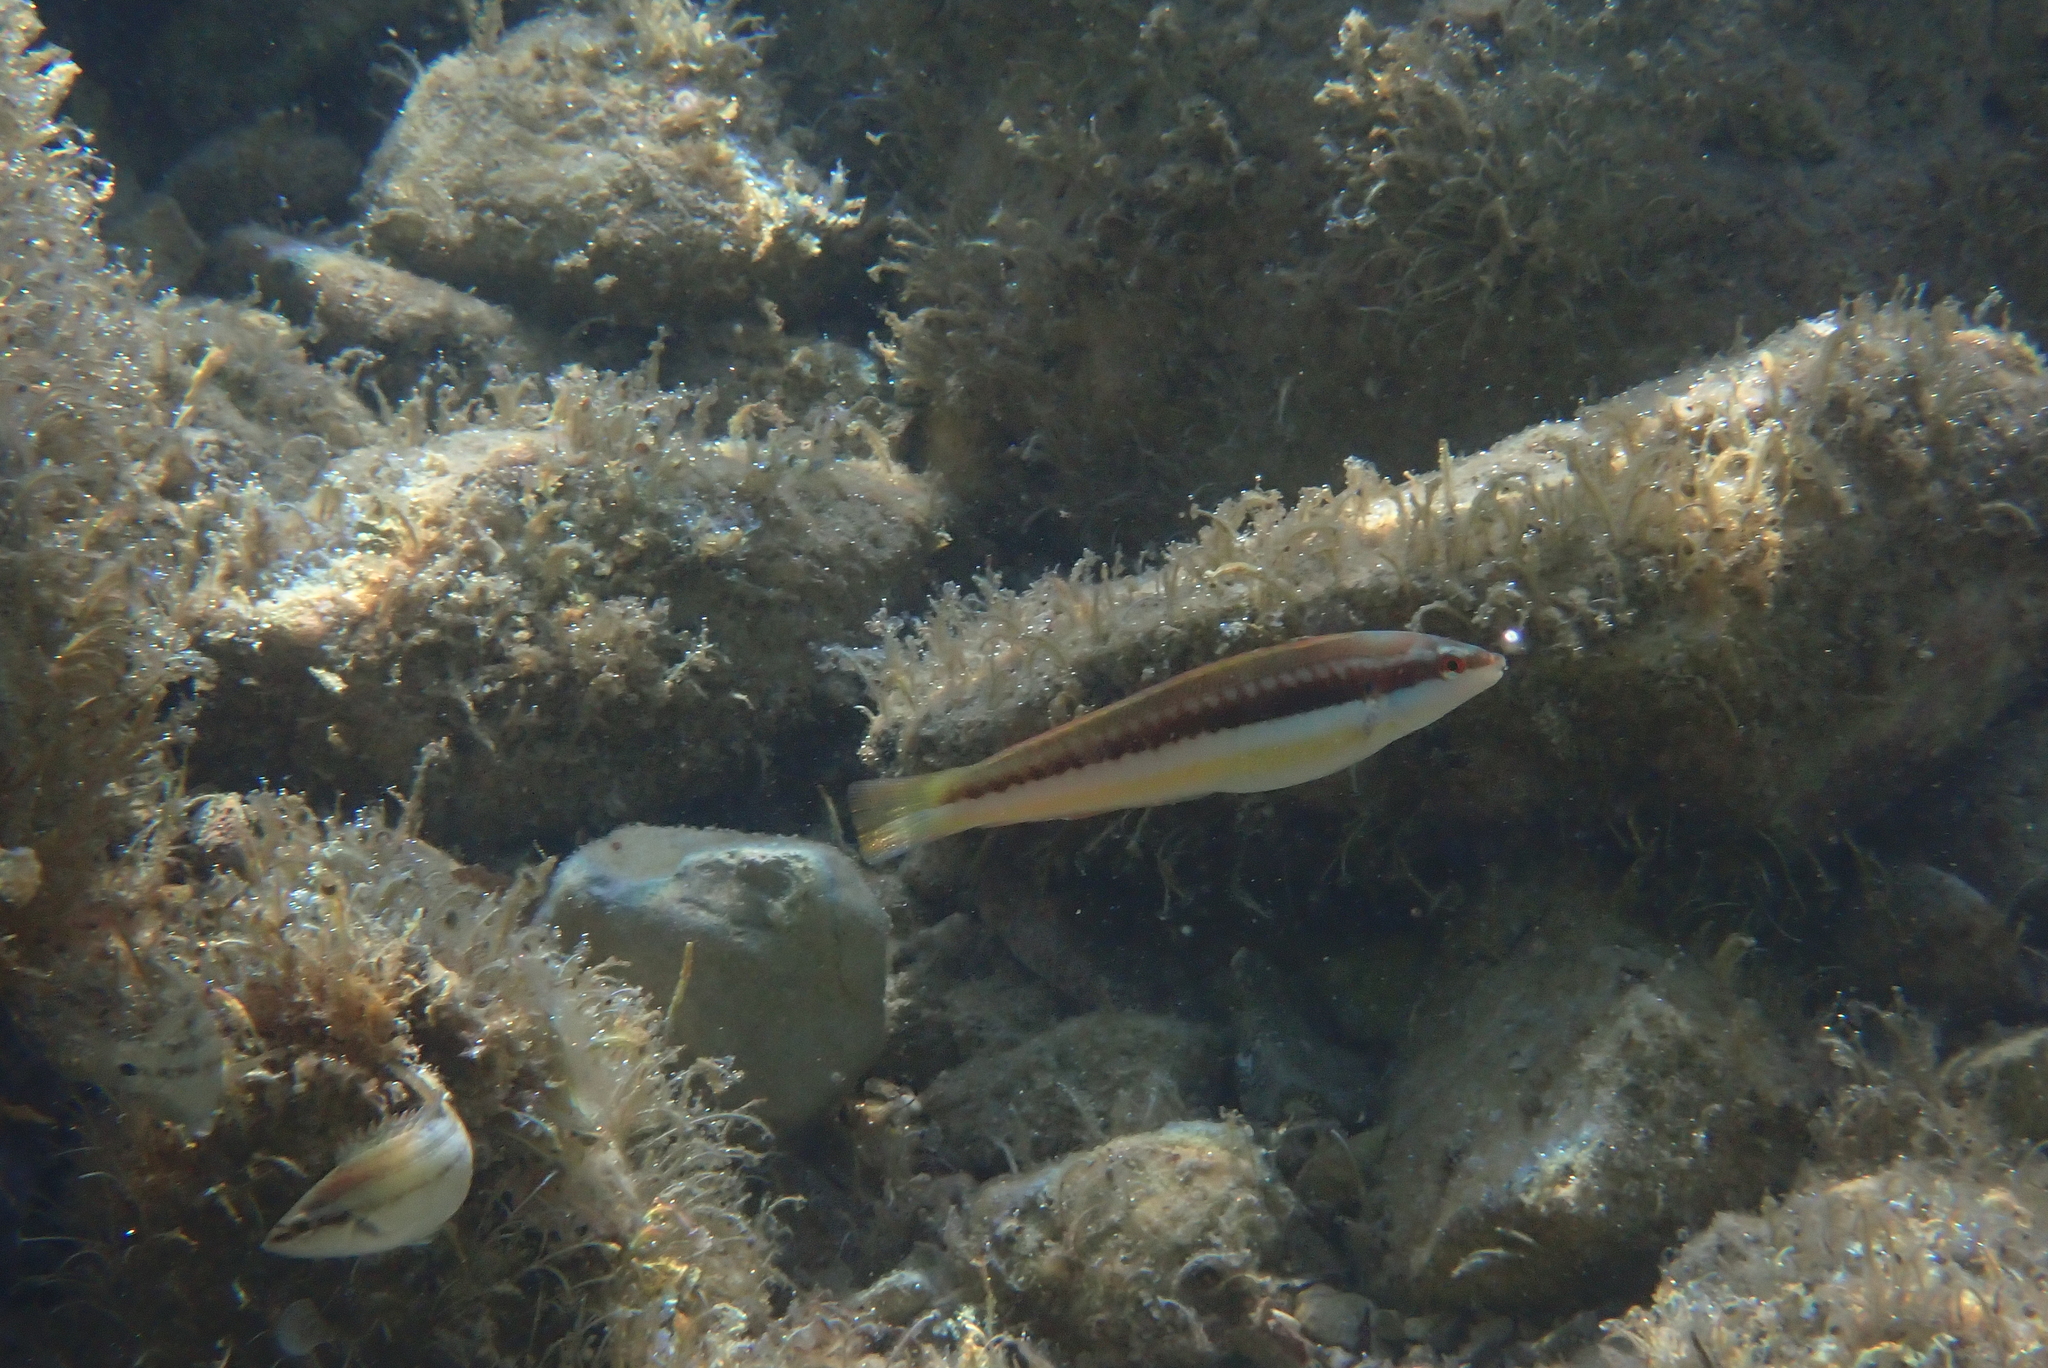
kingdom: Animalia
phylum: Chordata
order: Perciformes
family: Labridae
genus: Coris
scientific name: Coris julis
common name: Rainbow wrasse
